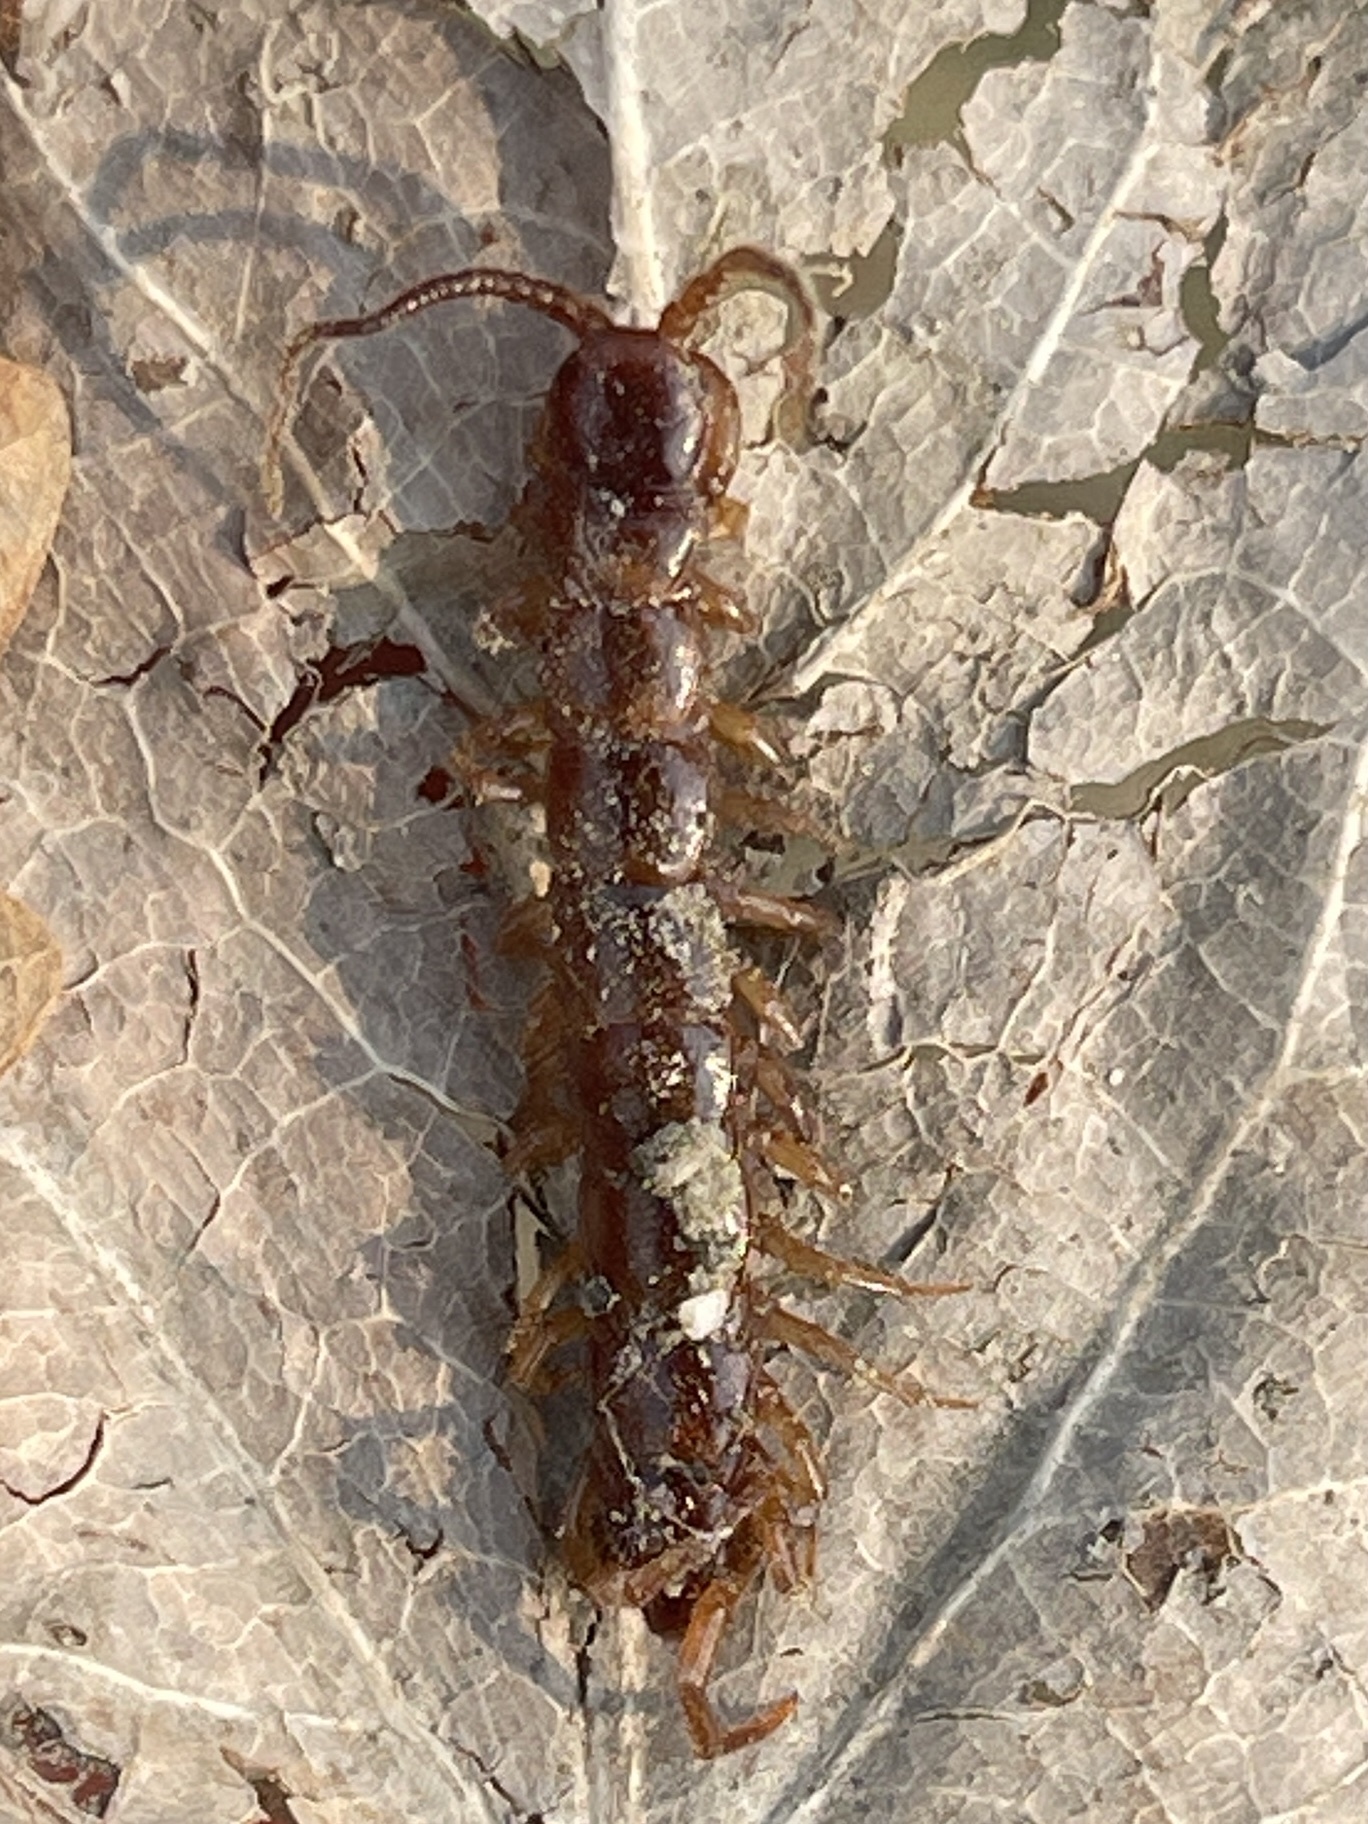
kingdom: Animalia
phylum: Arthropoda
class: Chilopoda
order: Lithobiomorpha
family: Lithobiidae
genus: Lithobius
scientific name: Lithobius forficatus
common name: Centipede
